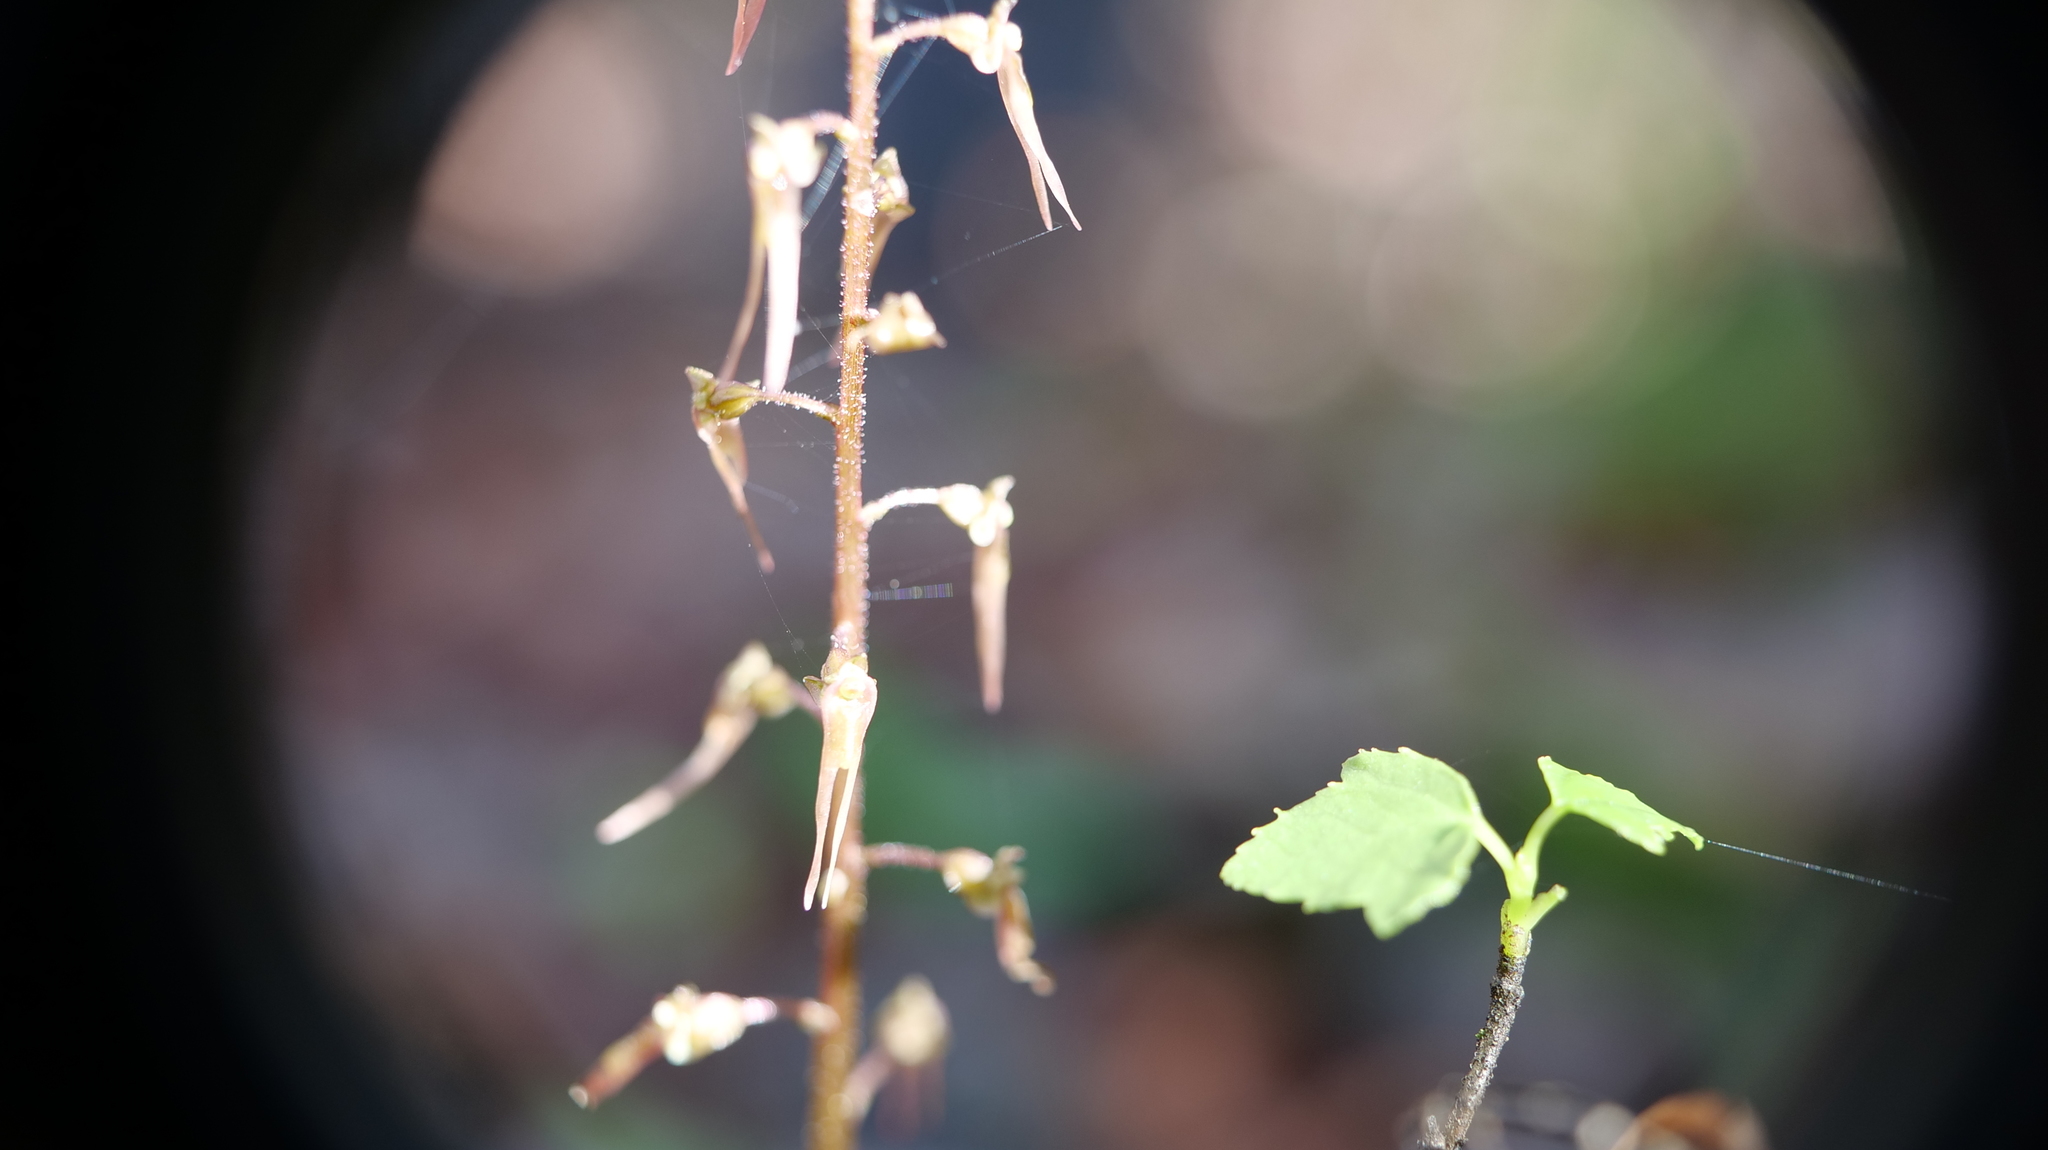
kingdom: Plantae
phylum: Tracheophyta
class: Liliopsida
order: Asparagales
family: Orchidaceae
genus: Neottia
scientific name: Neottia bifolia
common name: Southern twayblade
